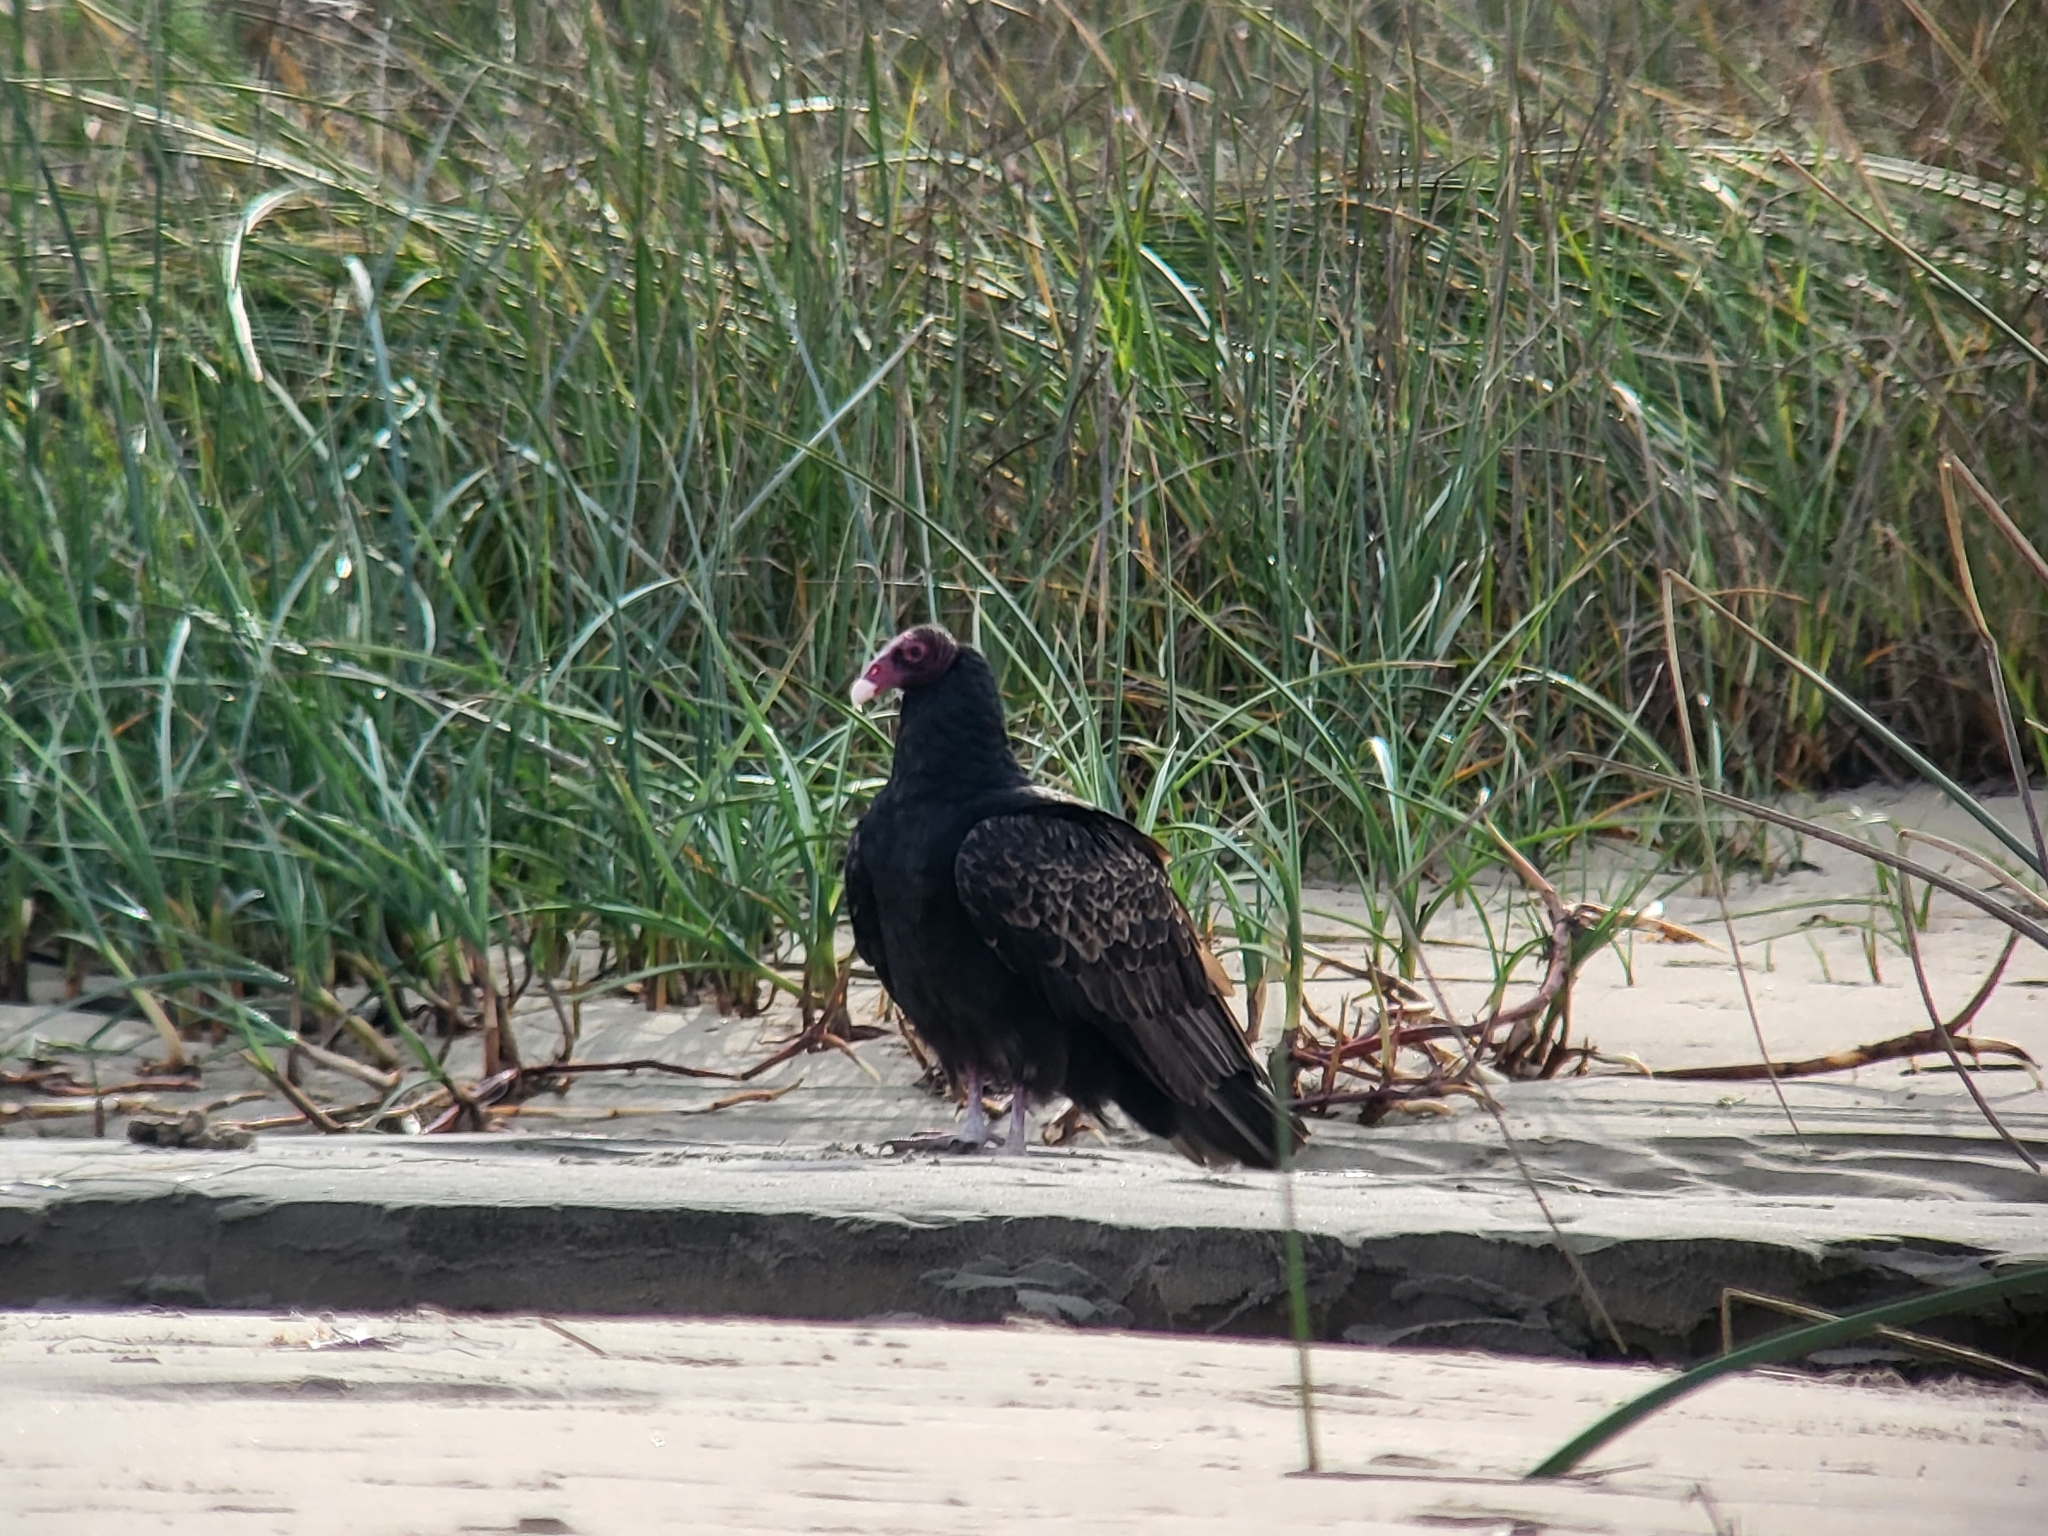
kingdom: Animalia
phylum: Chordata
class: Aves
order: Accipitriformes
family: Cathartidae
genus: Cathartes
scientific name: Cathartes aura
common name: Turkey vulture
